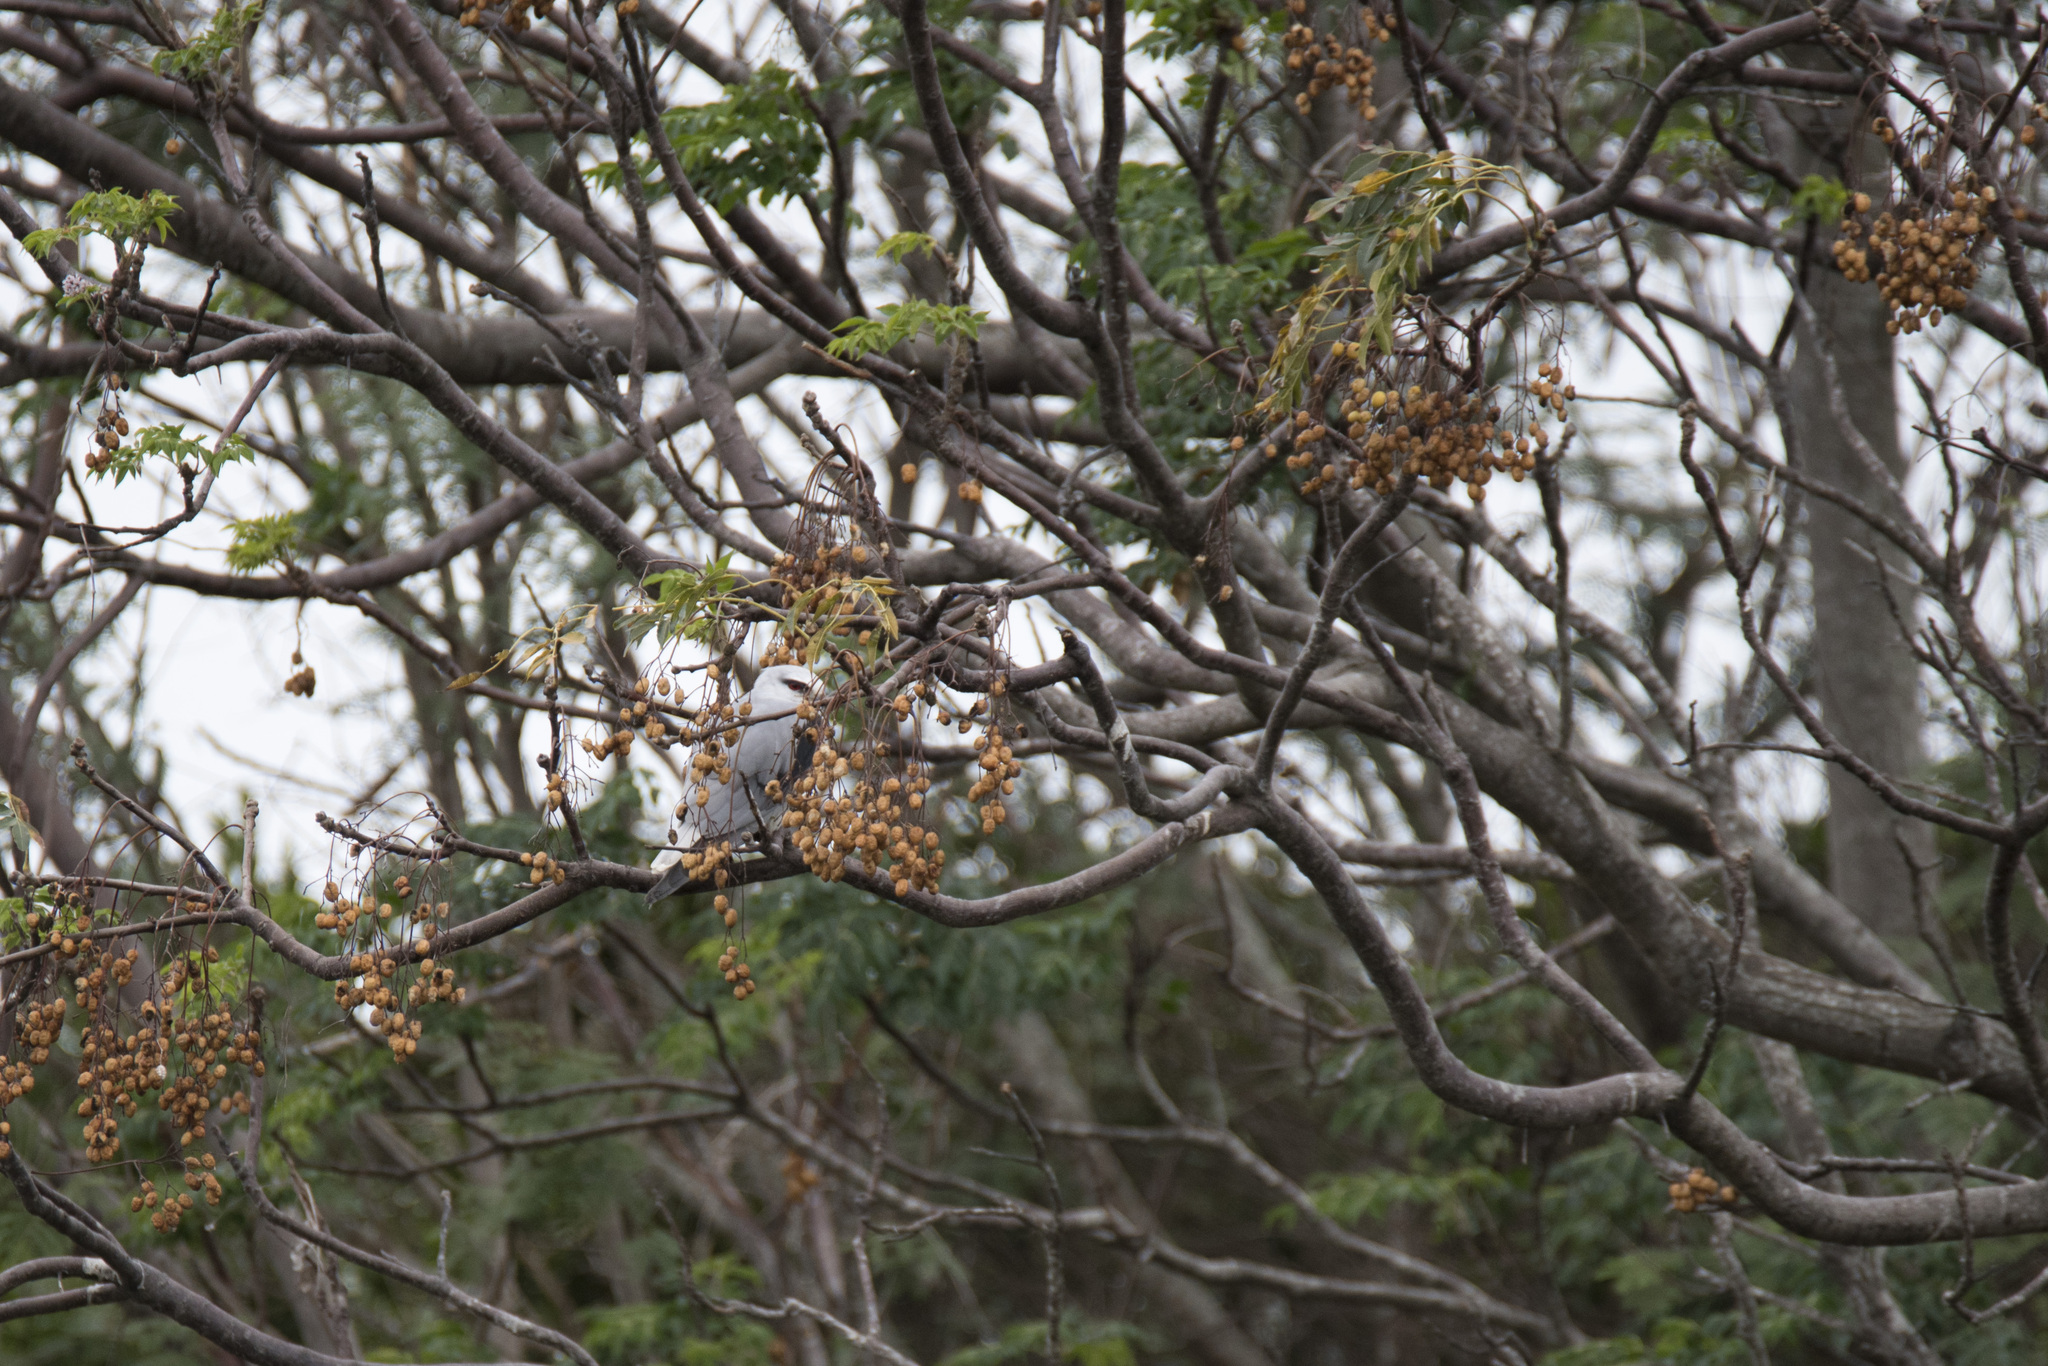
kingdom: Animalia
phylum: Chordata
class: Aves
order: Accipitriformes
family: Accipitridae
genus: Elanus
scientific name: Elanus caeruleus
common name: Black-winged kite
